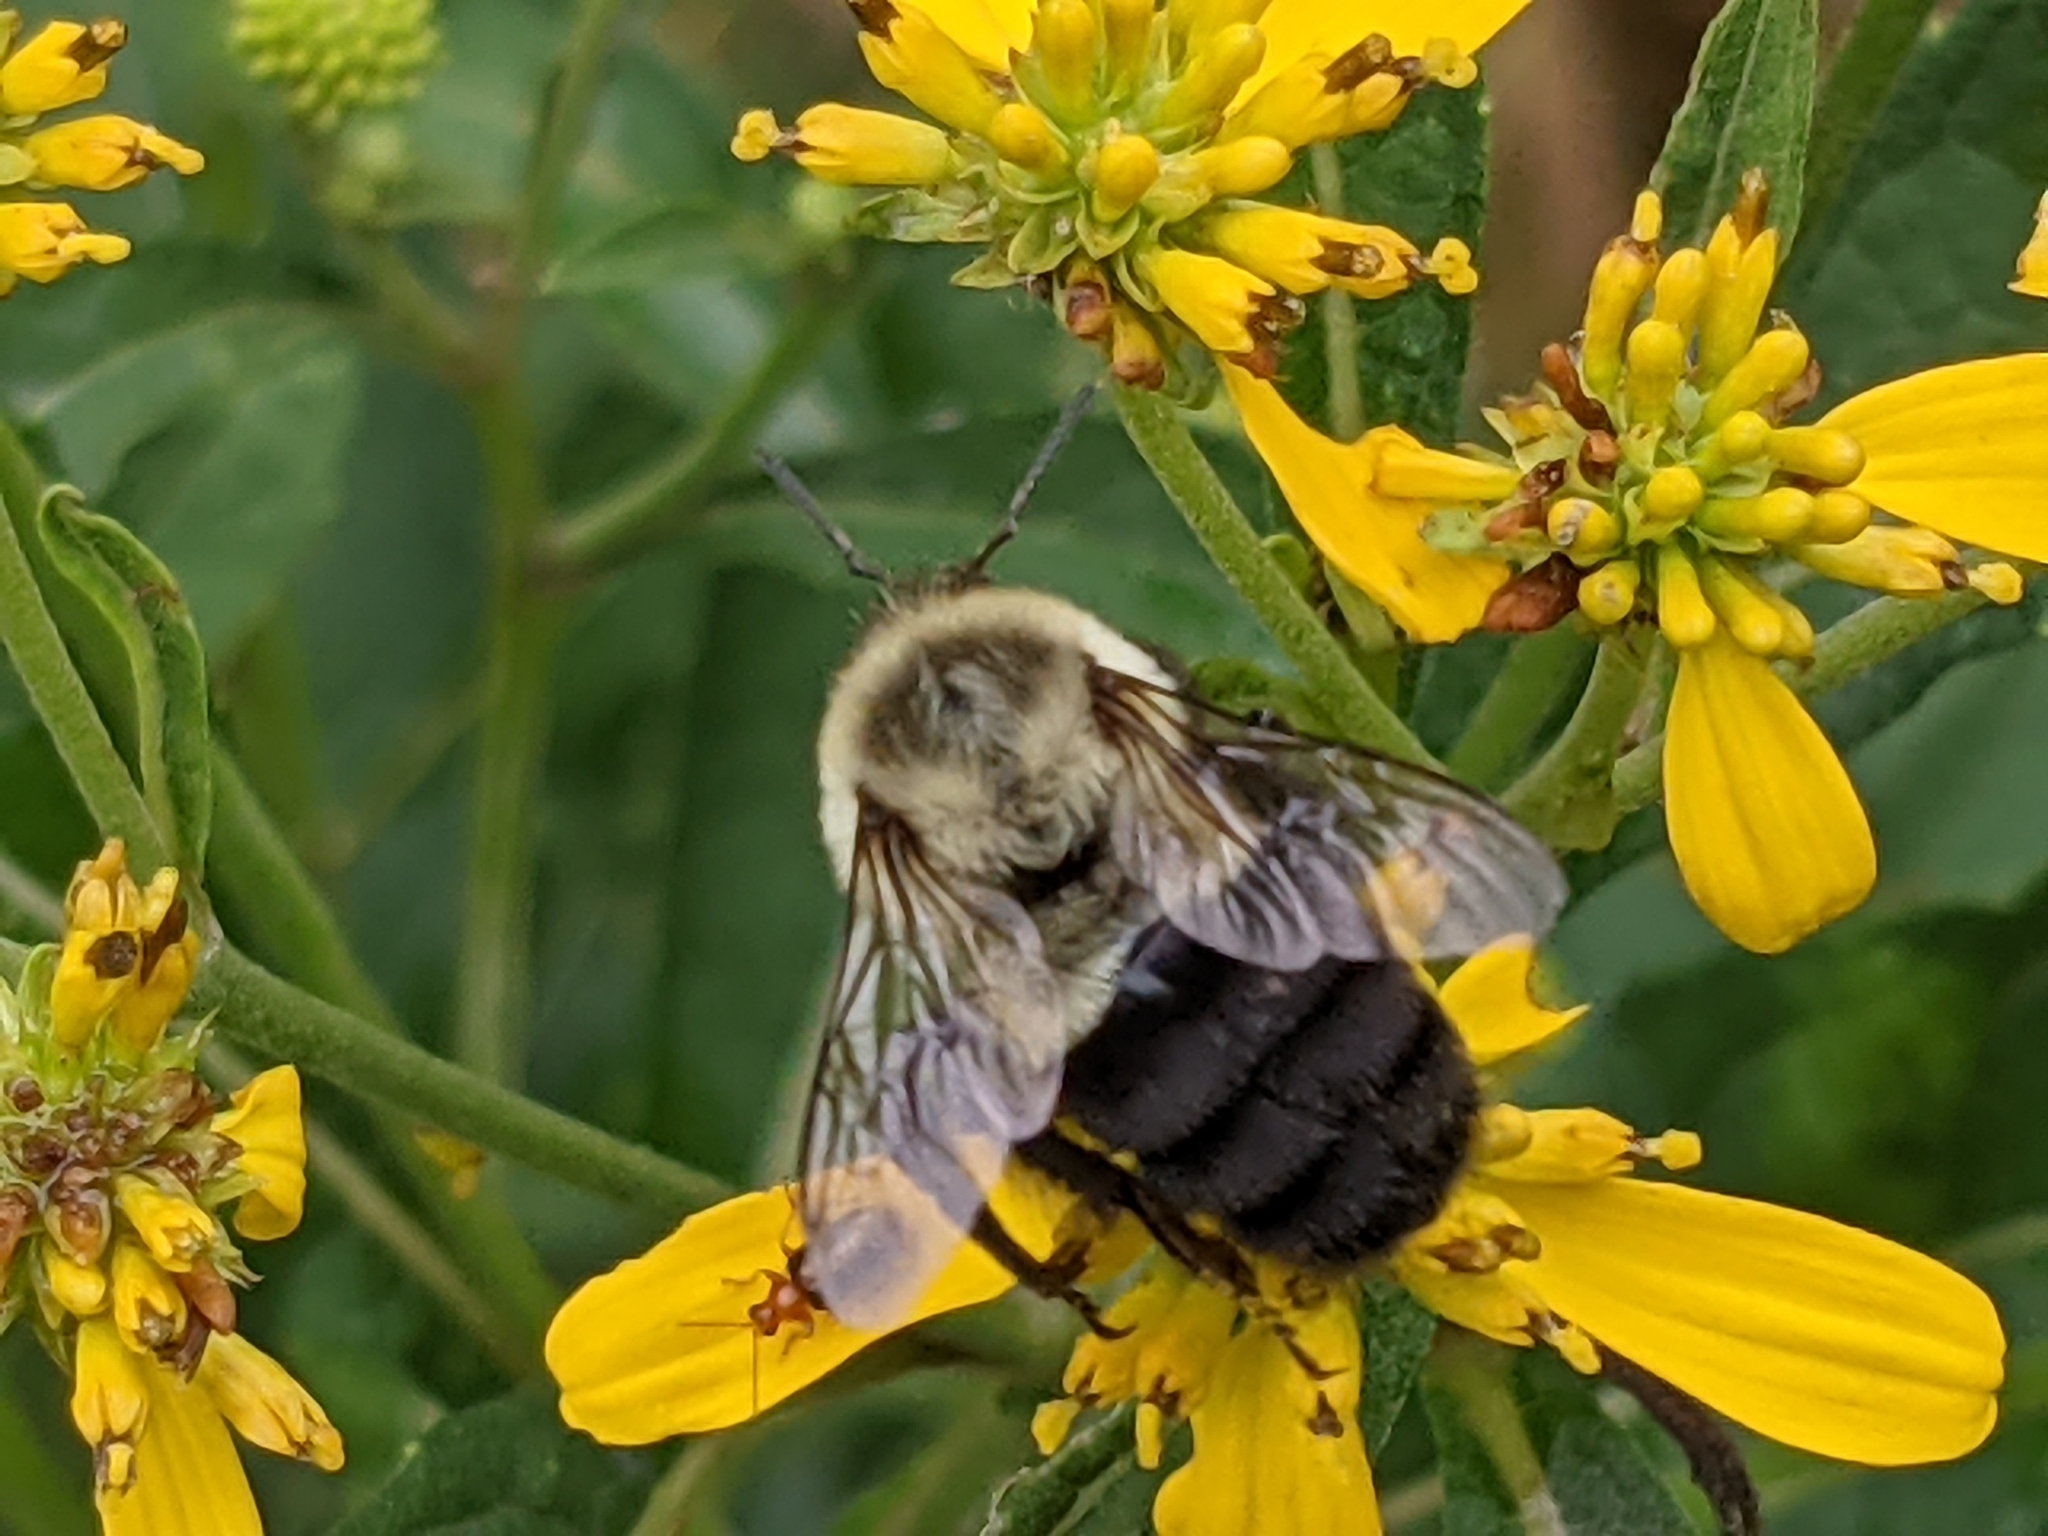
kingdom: Animalia
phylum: Arthropoda
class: Insecta
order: Hymenoptera
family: Apidae
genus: Bombus
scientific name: Bombus impatiens
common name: Common eastern bumble bee
